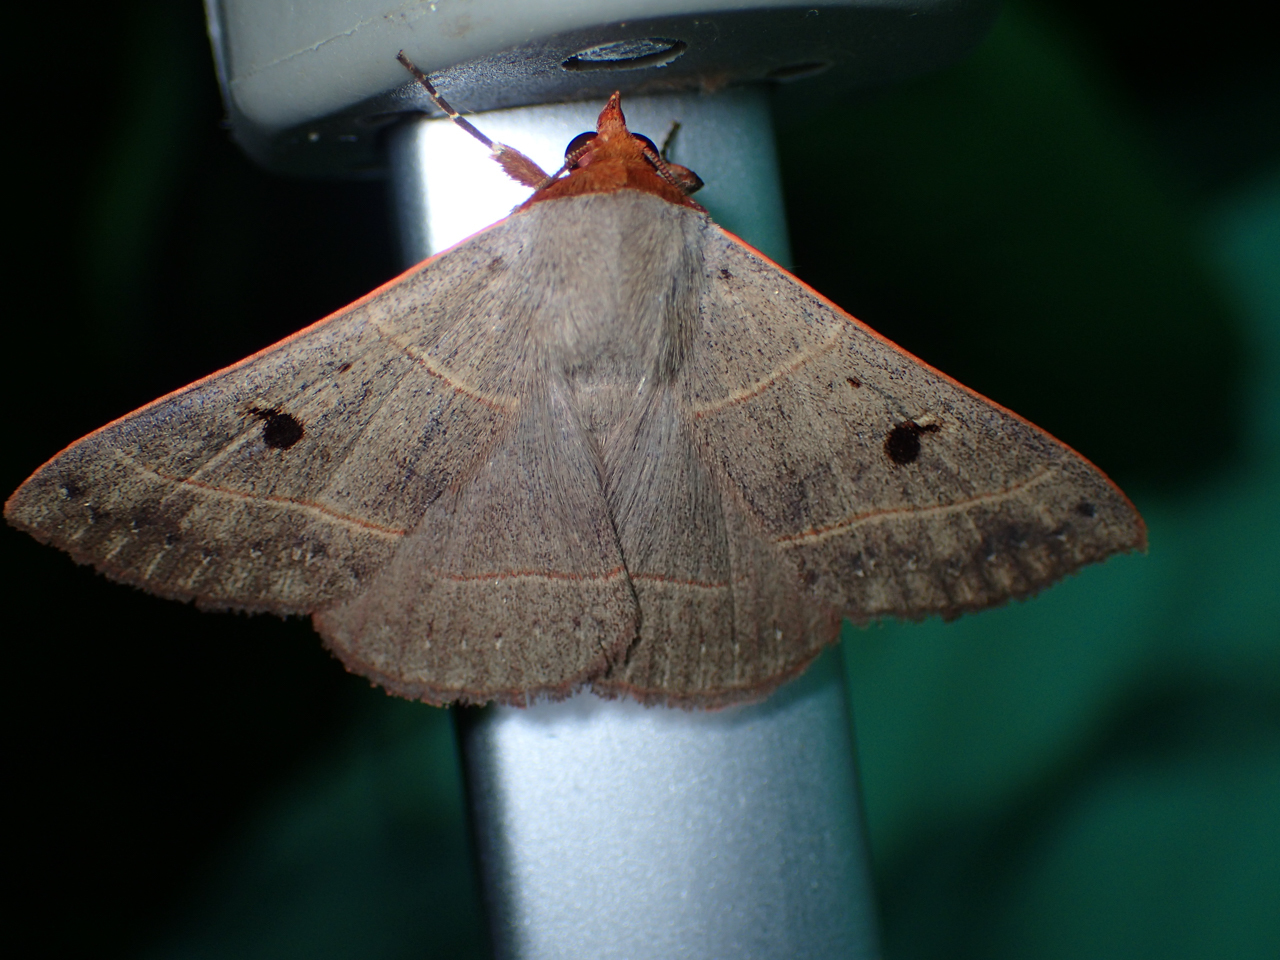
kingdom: Animalia
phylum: Arthropoda
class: Insecta
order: Lepidoptera
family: Erebidae
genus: Panopoda
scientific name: Panopoda rufimargo
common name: Red-lined panopoda moth
